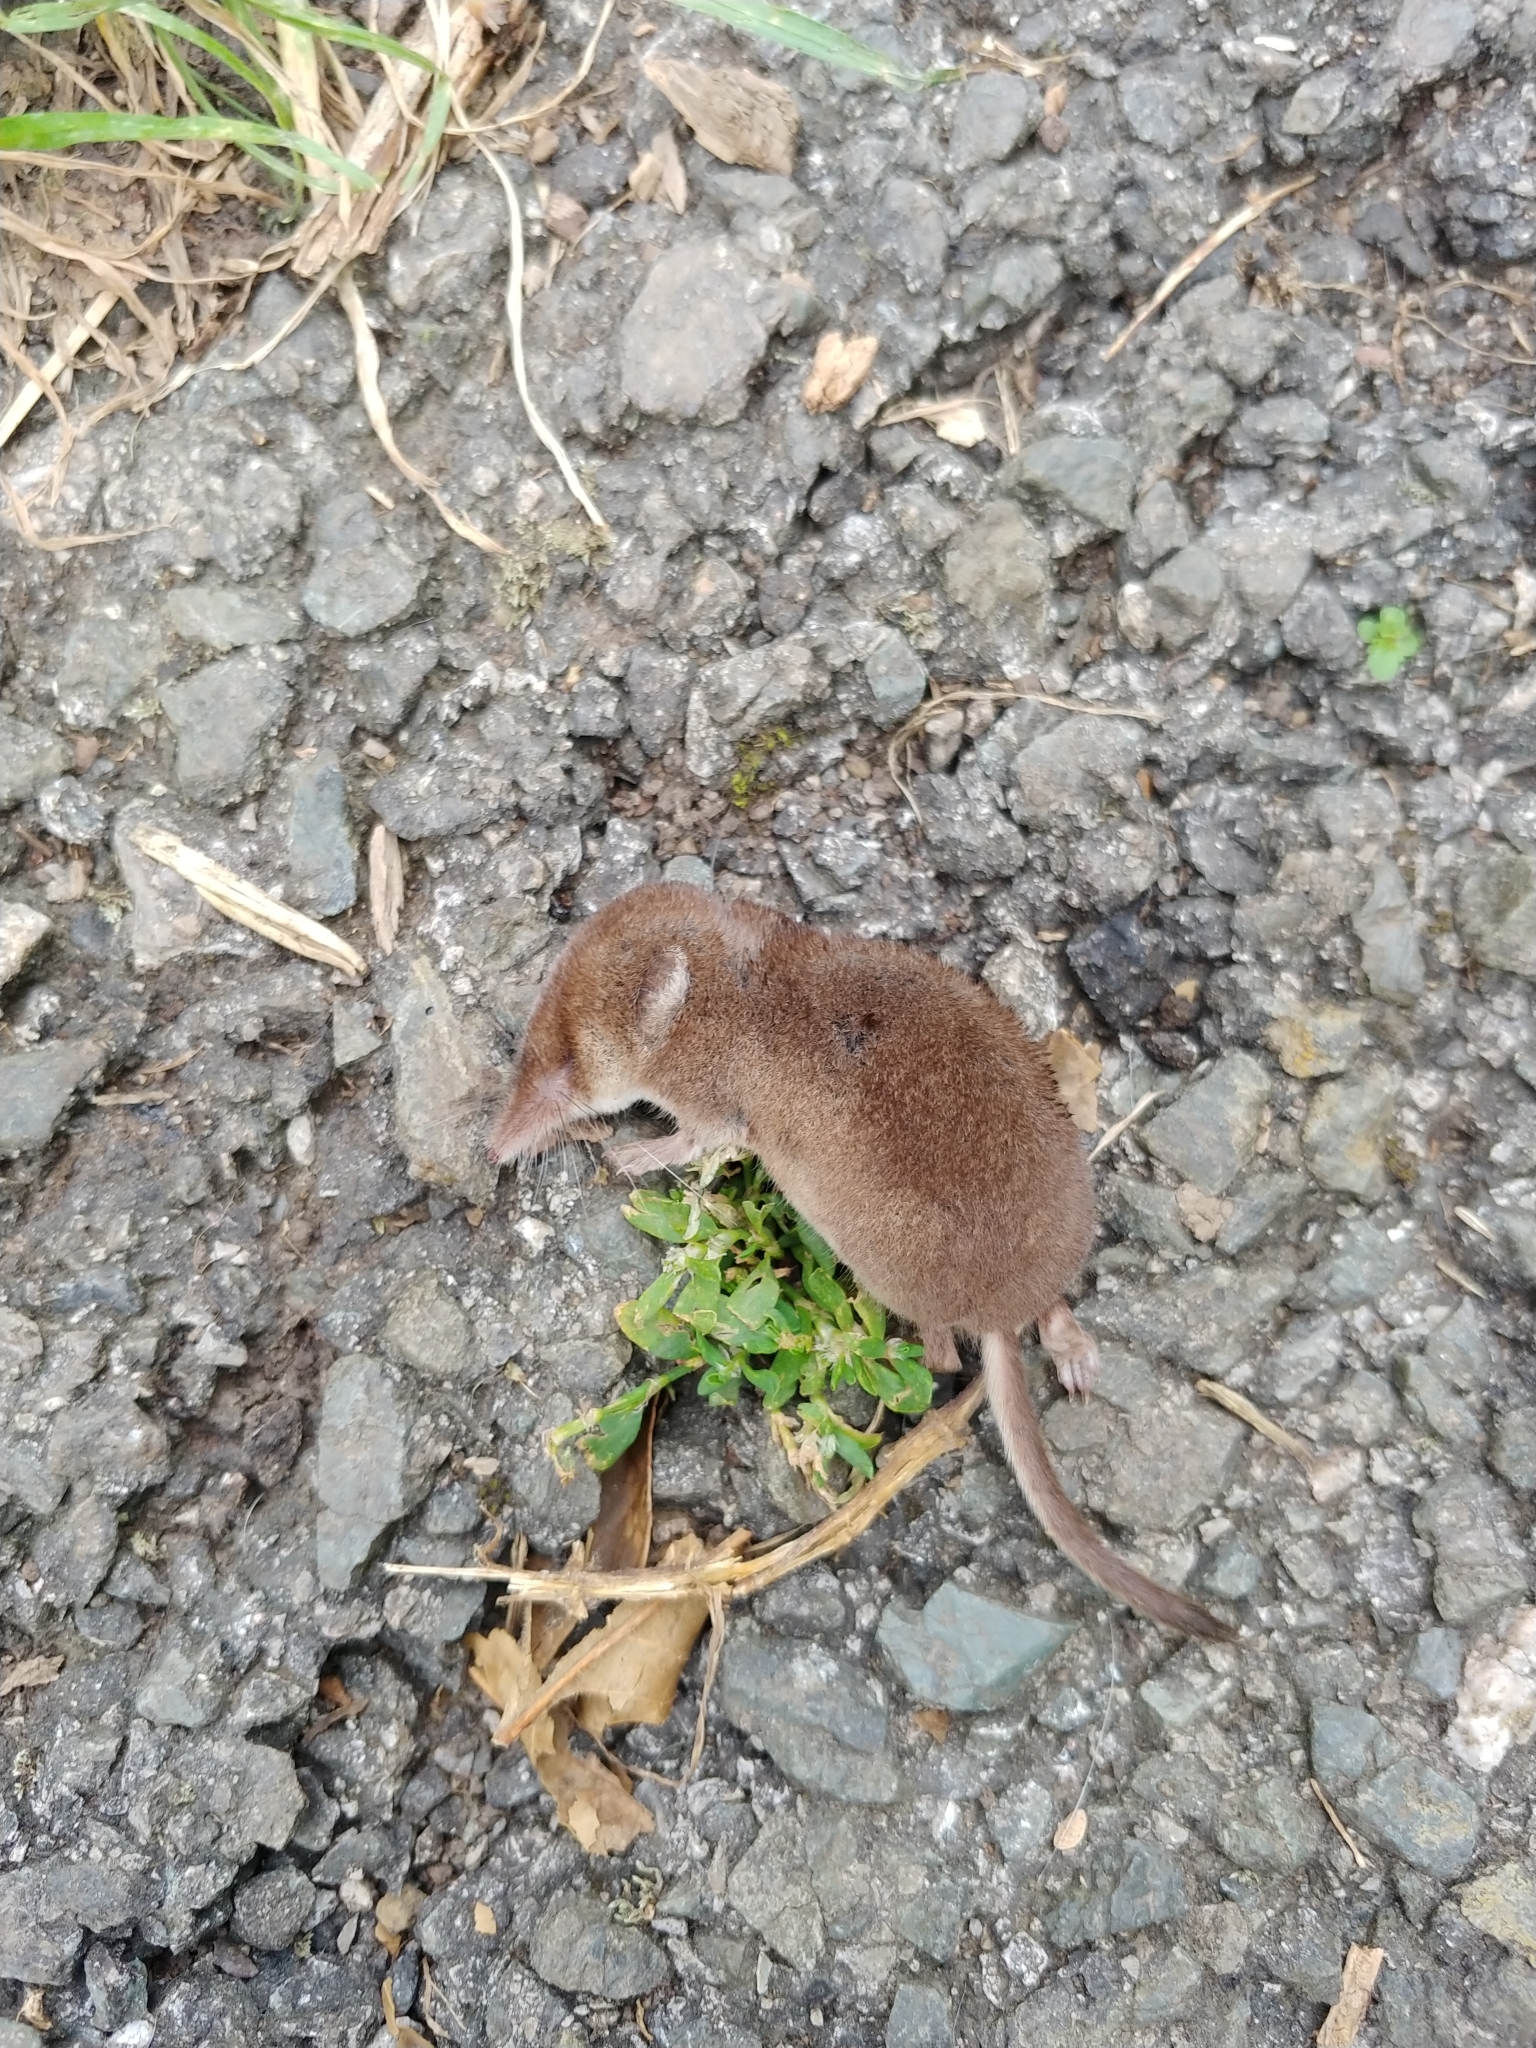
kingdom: Animalia
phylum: Chordata
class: Mammalia
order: Soricomorpha
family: Soricidae
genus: Sorex
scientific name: Sorex araneus
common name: Common shrew
